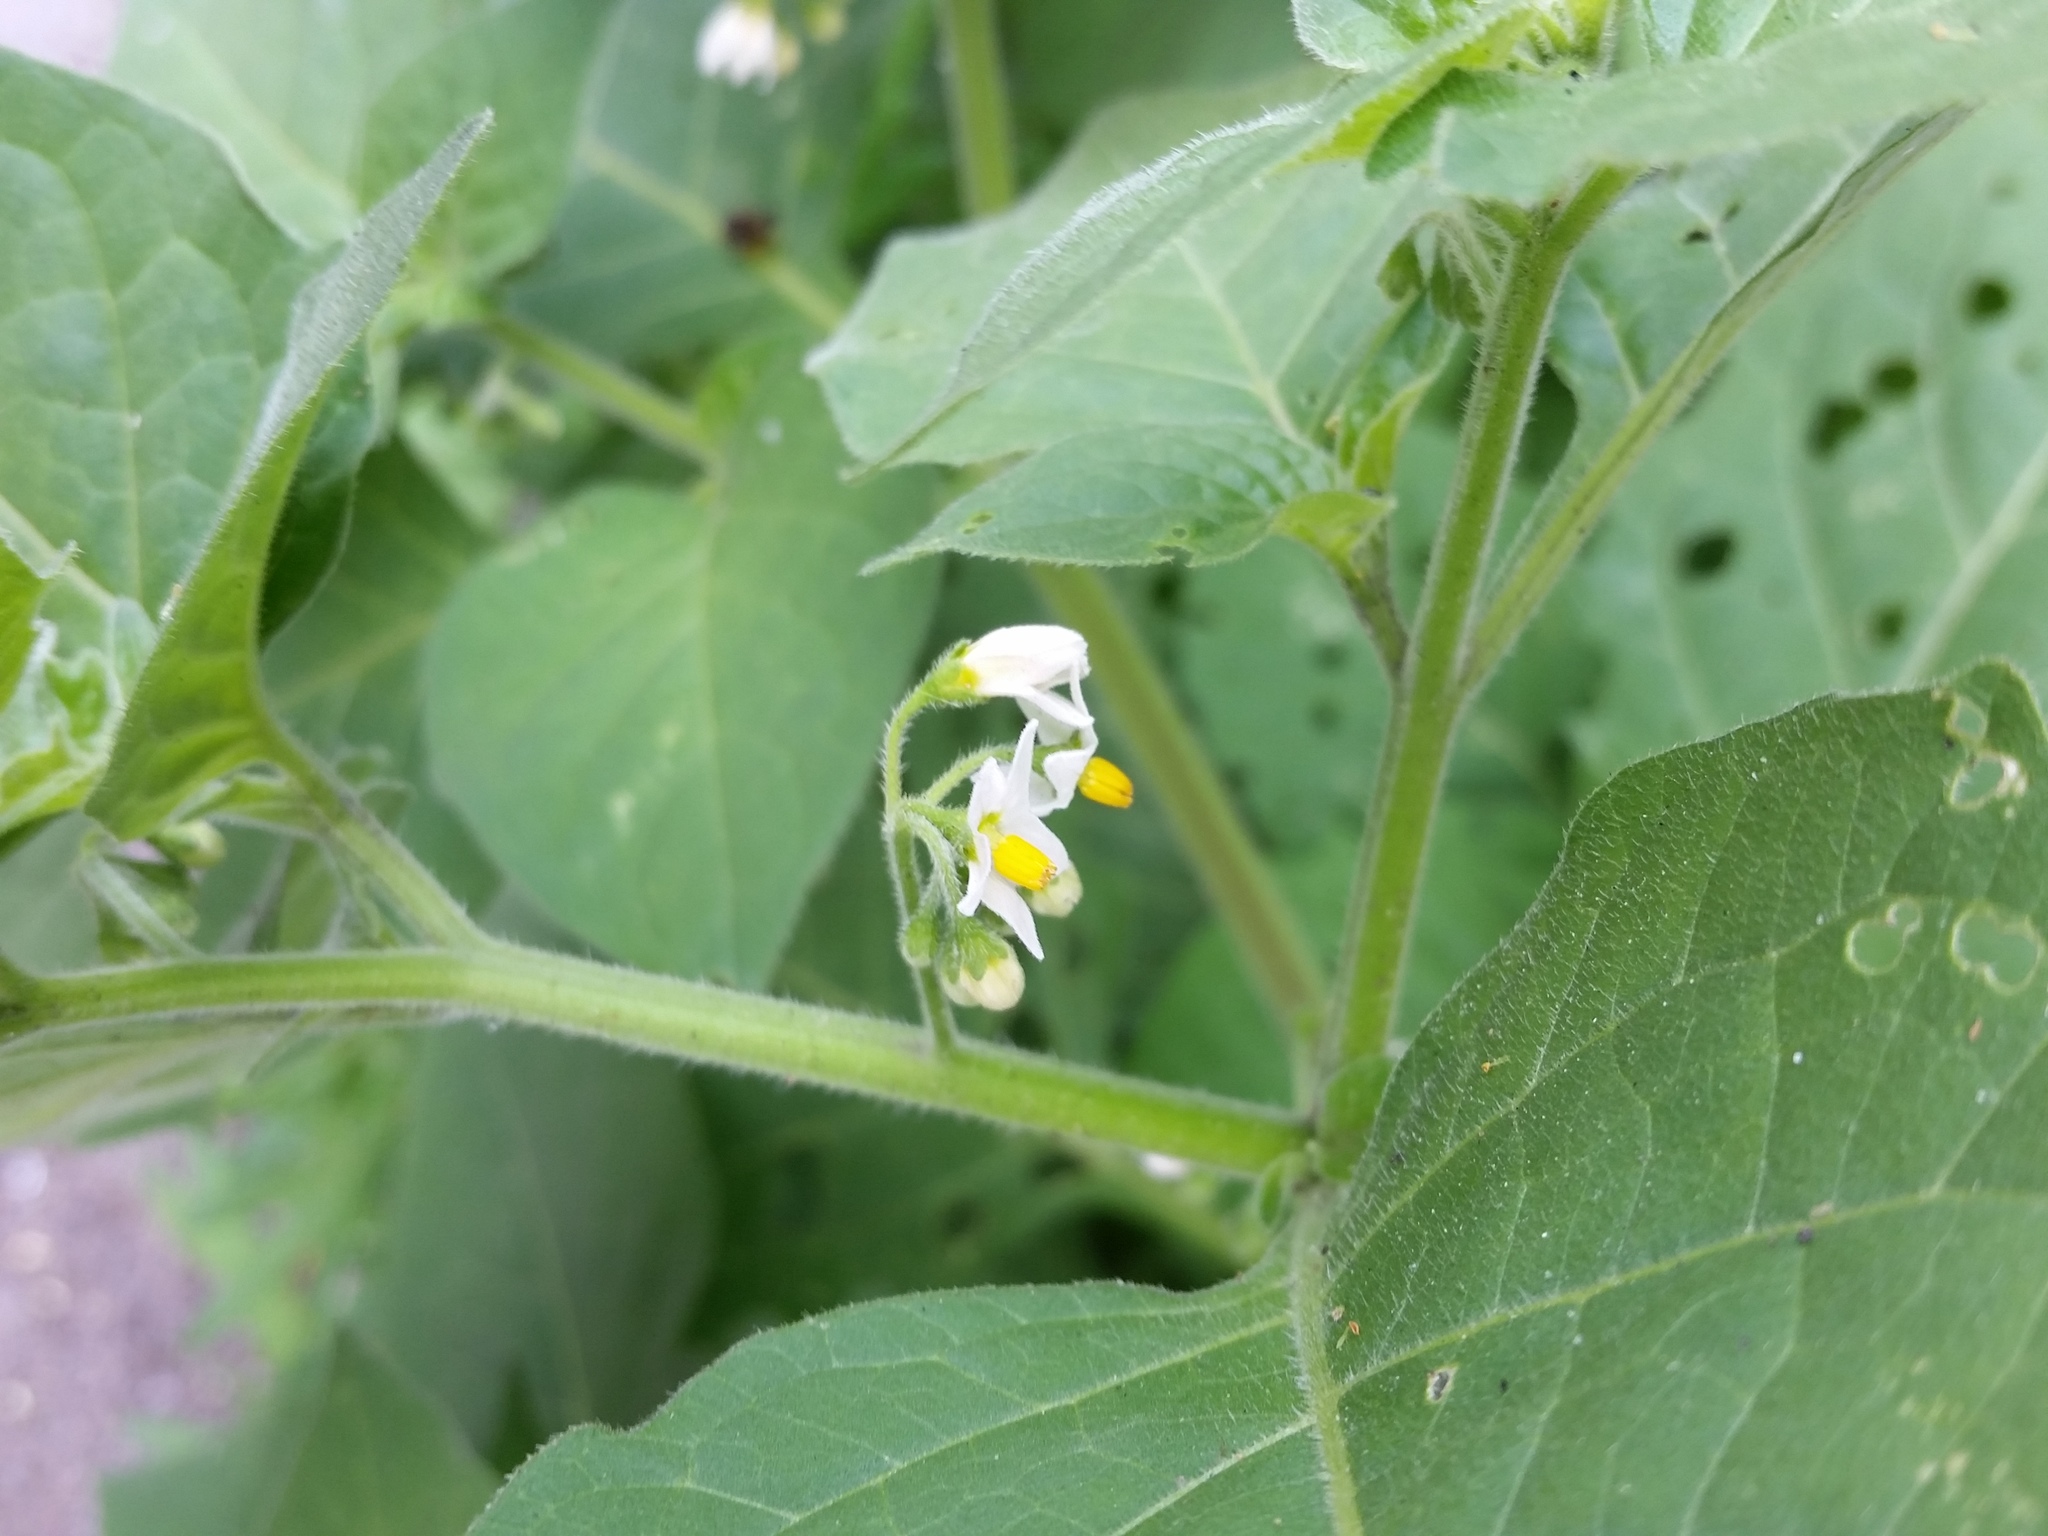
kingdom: Plantae
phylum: Tracheophyta
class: Magnoliopsida
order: Solanales
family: Solanaceae
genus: Solanum
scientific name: Solanum nigrum
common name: Black nightshade
